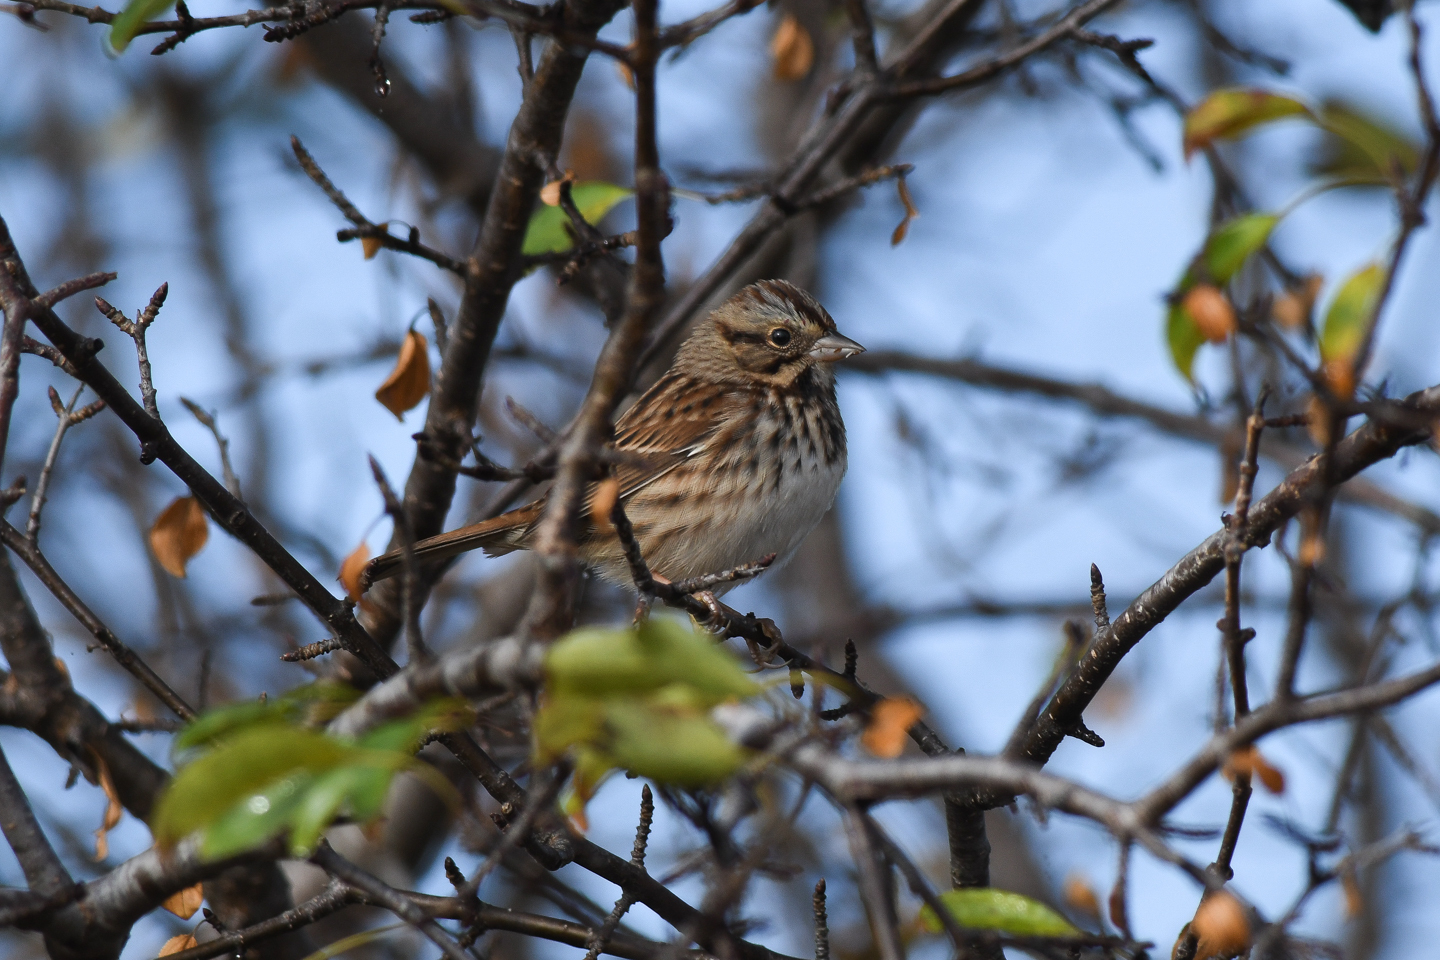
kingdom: Animalia
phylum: Chordata
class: Aves
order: Passeriformes
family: Passerellidae
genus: Melospiza
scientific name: Melospiza melodia
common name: Song sparrow
